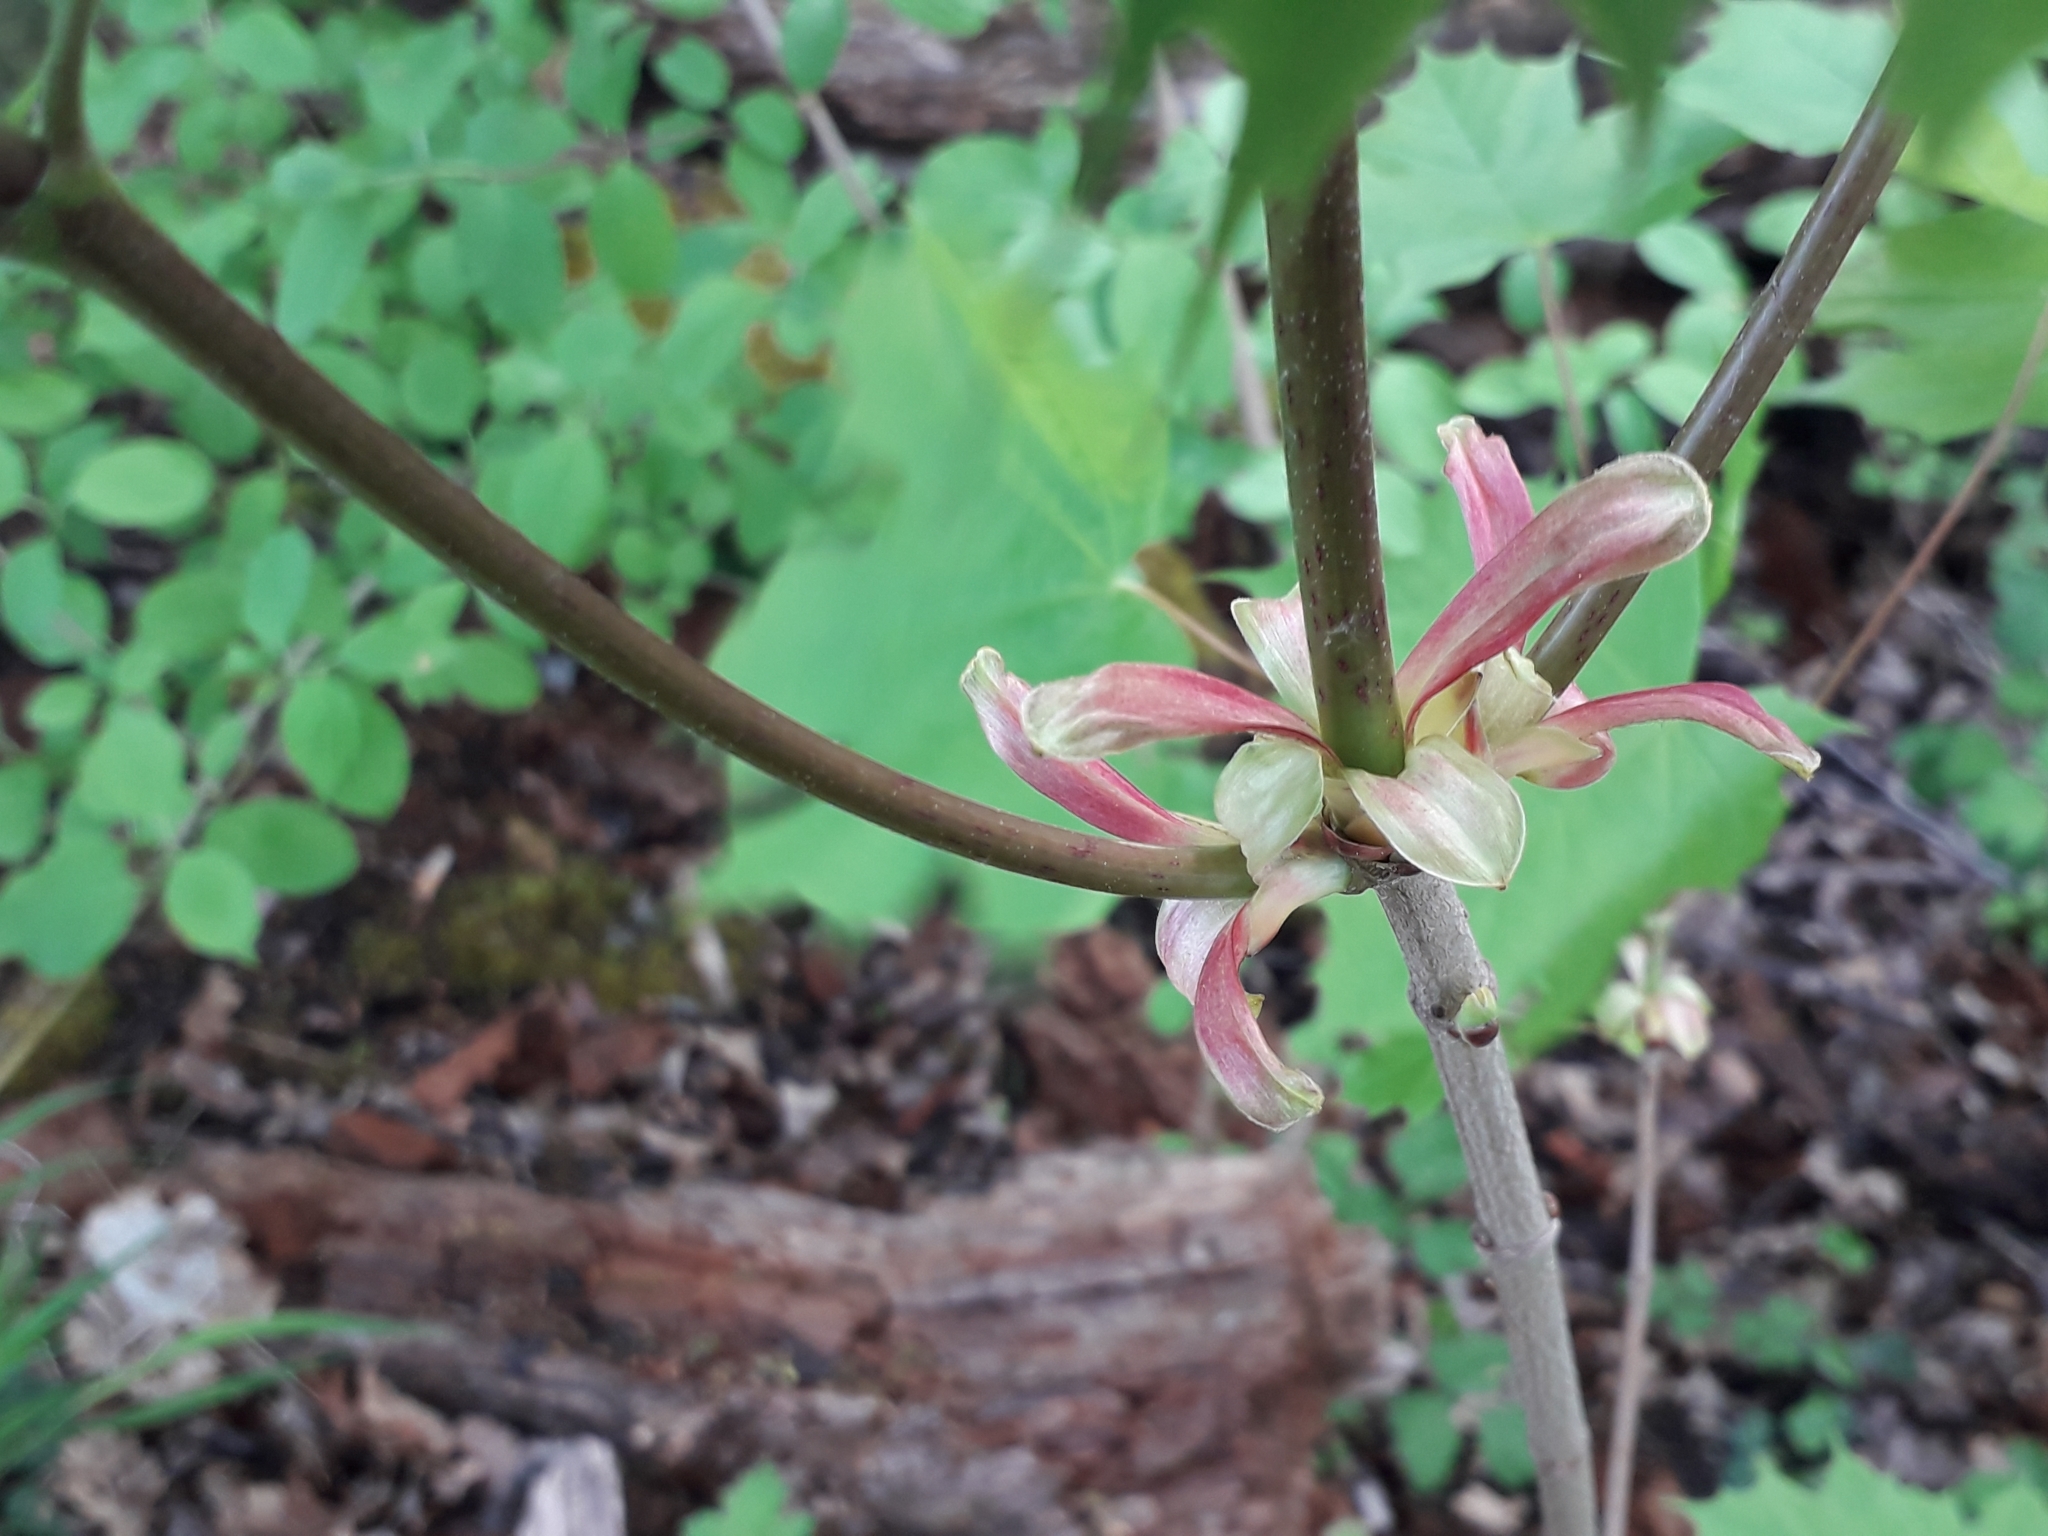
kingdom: Plantae
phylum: Tracheophyta
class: Magnoliopsida
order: Sapindales
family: Sapindaceae
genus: Acer
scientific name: Acer platanoides
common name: Norway maple
